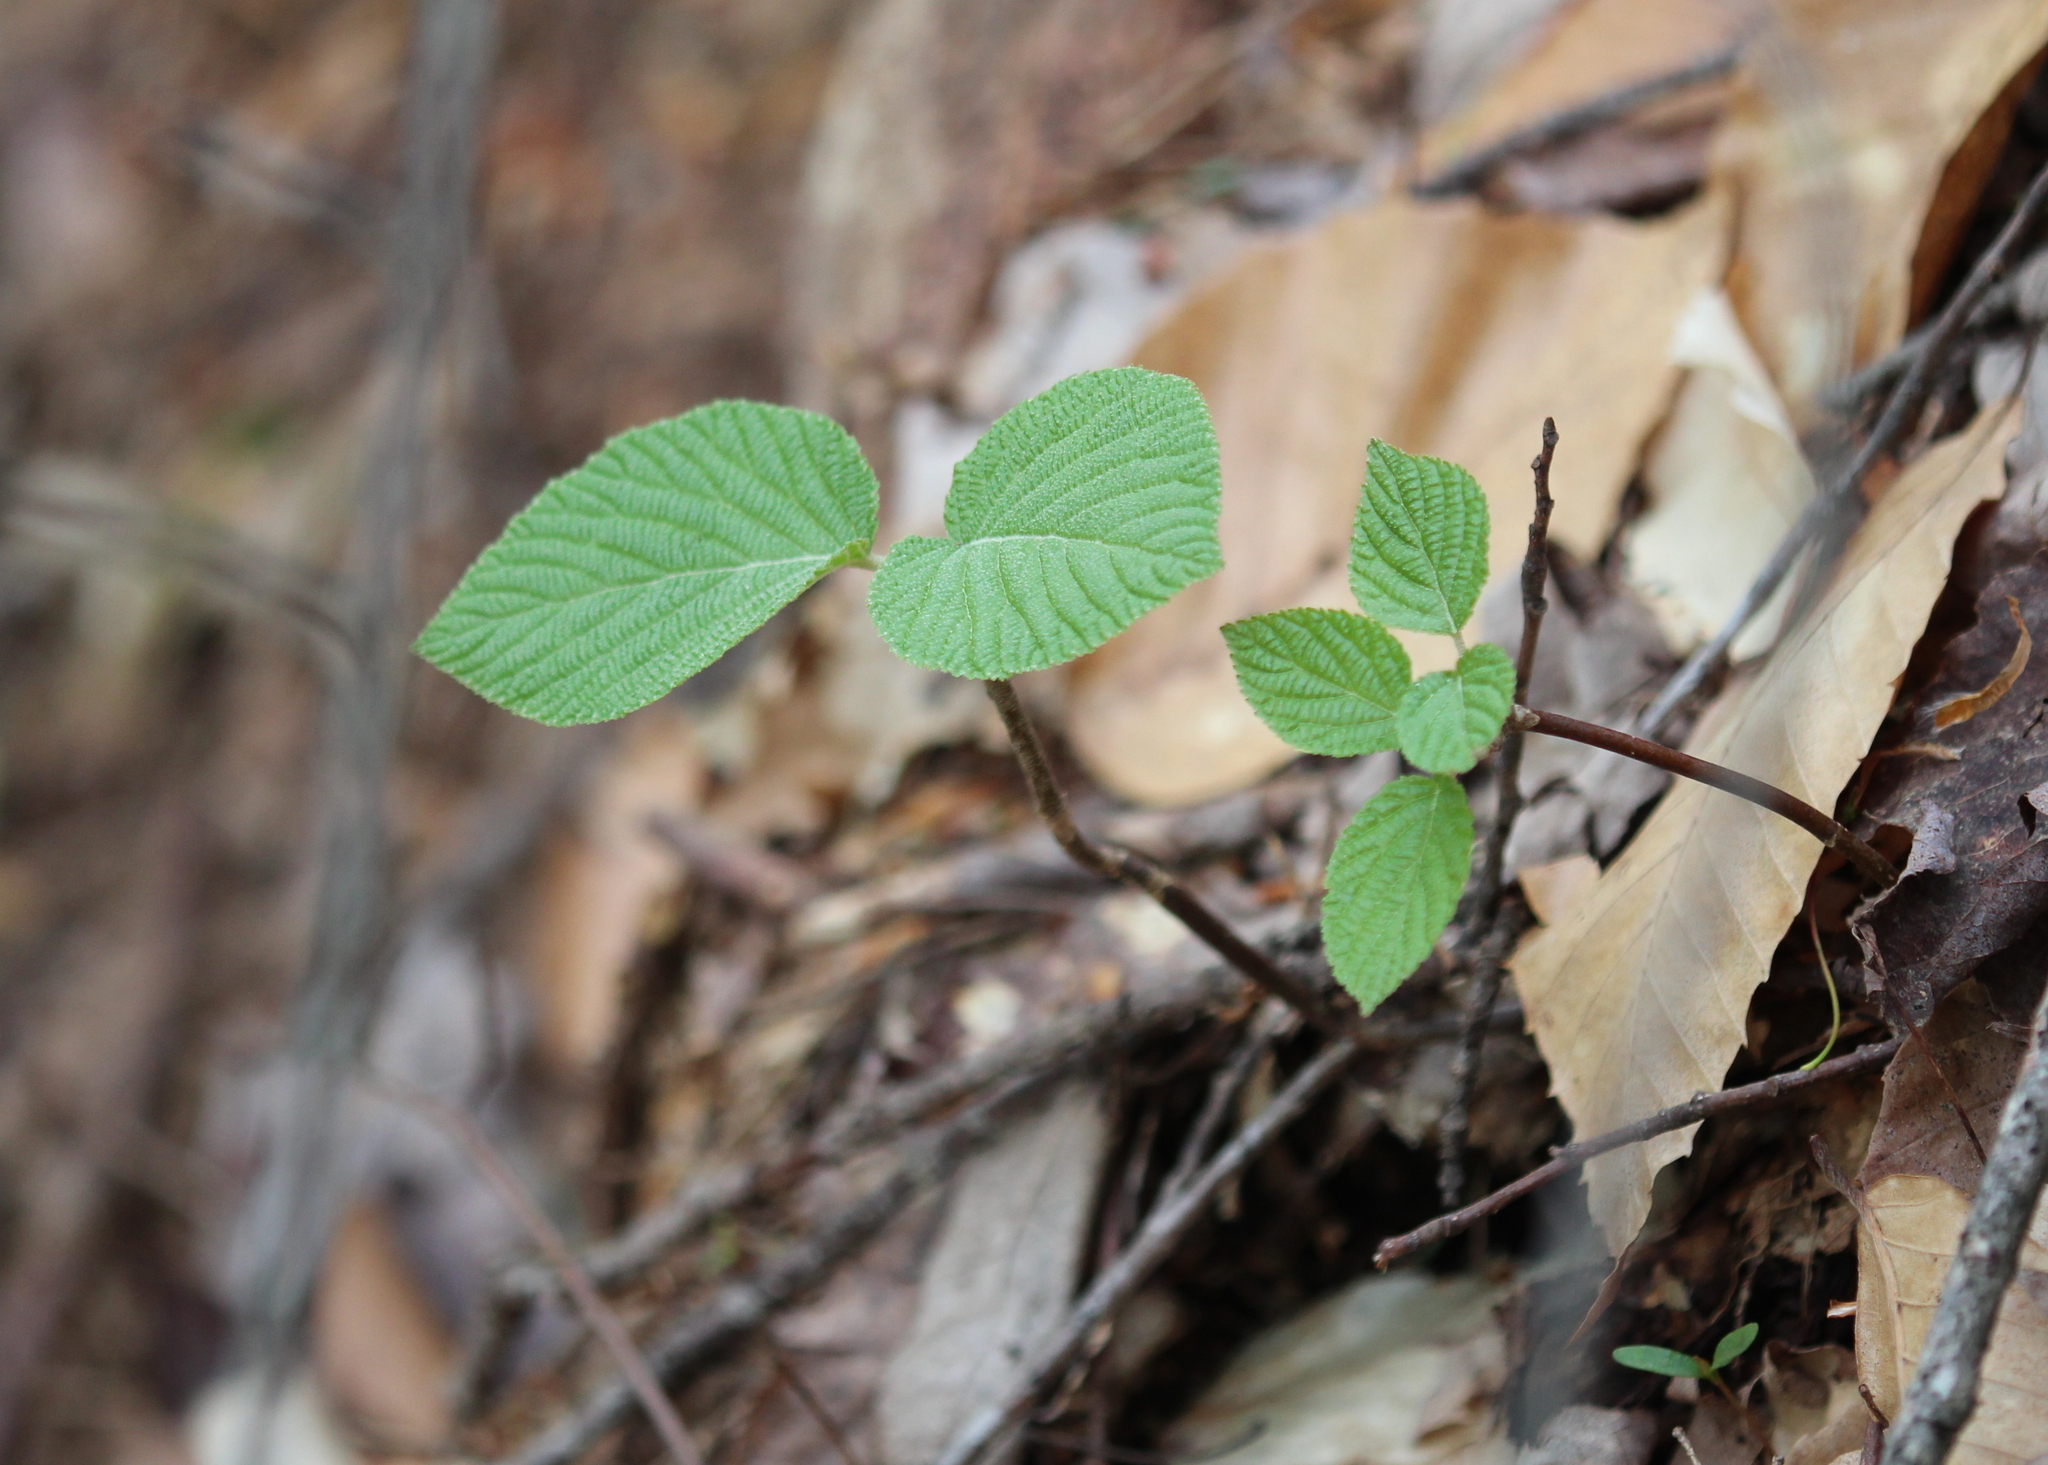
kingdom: Plantae
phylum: Tracheophyta
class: Magnoliopsida
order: Dipsacales
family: Viburnaceae
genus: Viburnum
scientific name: Viburnum lantanoides
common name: Hobblebush
